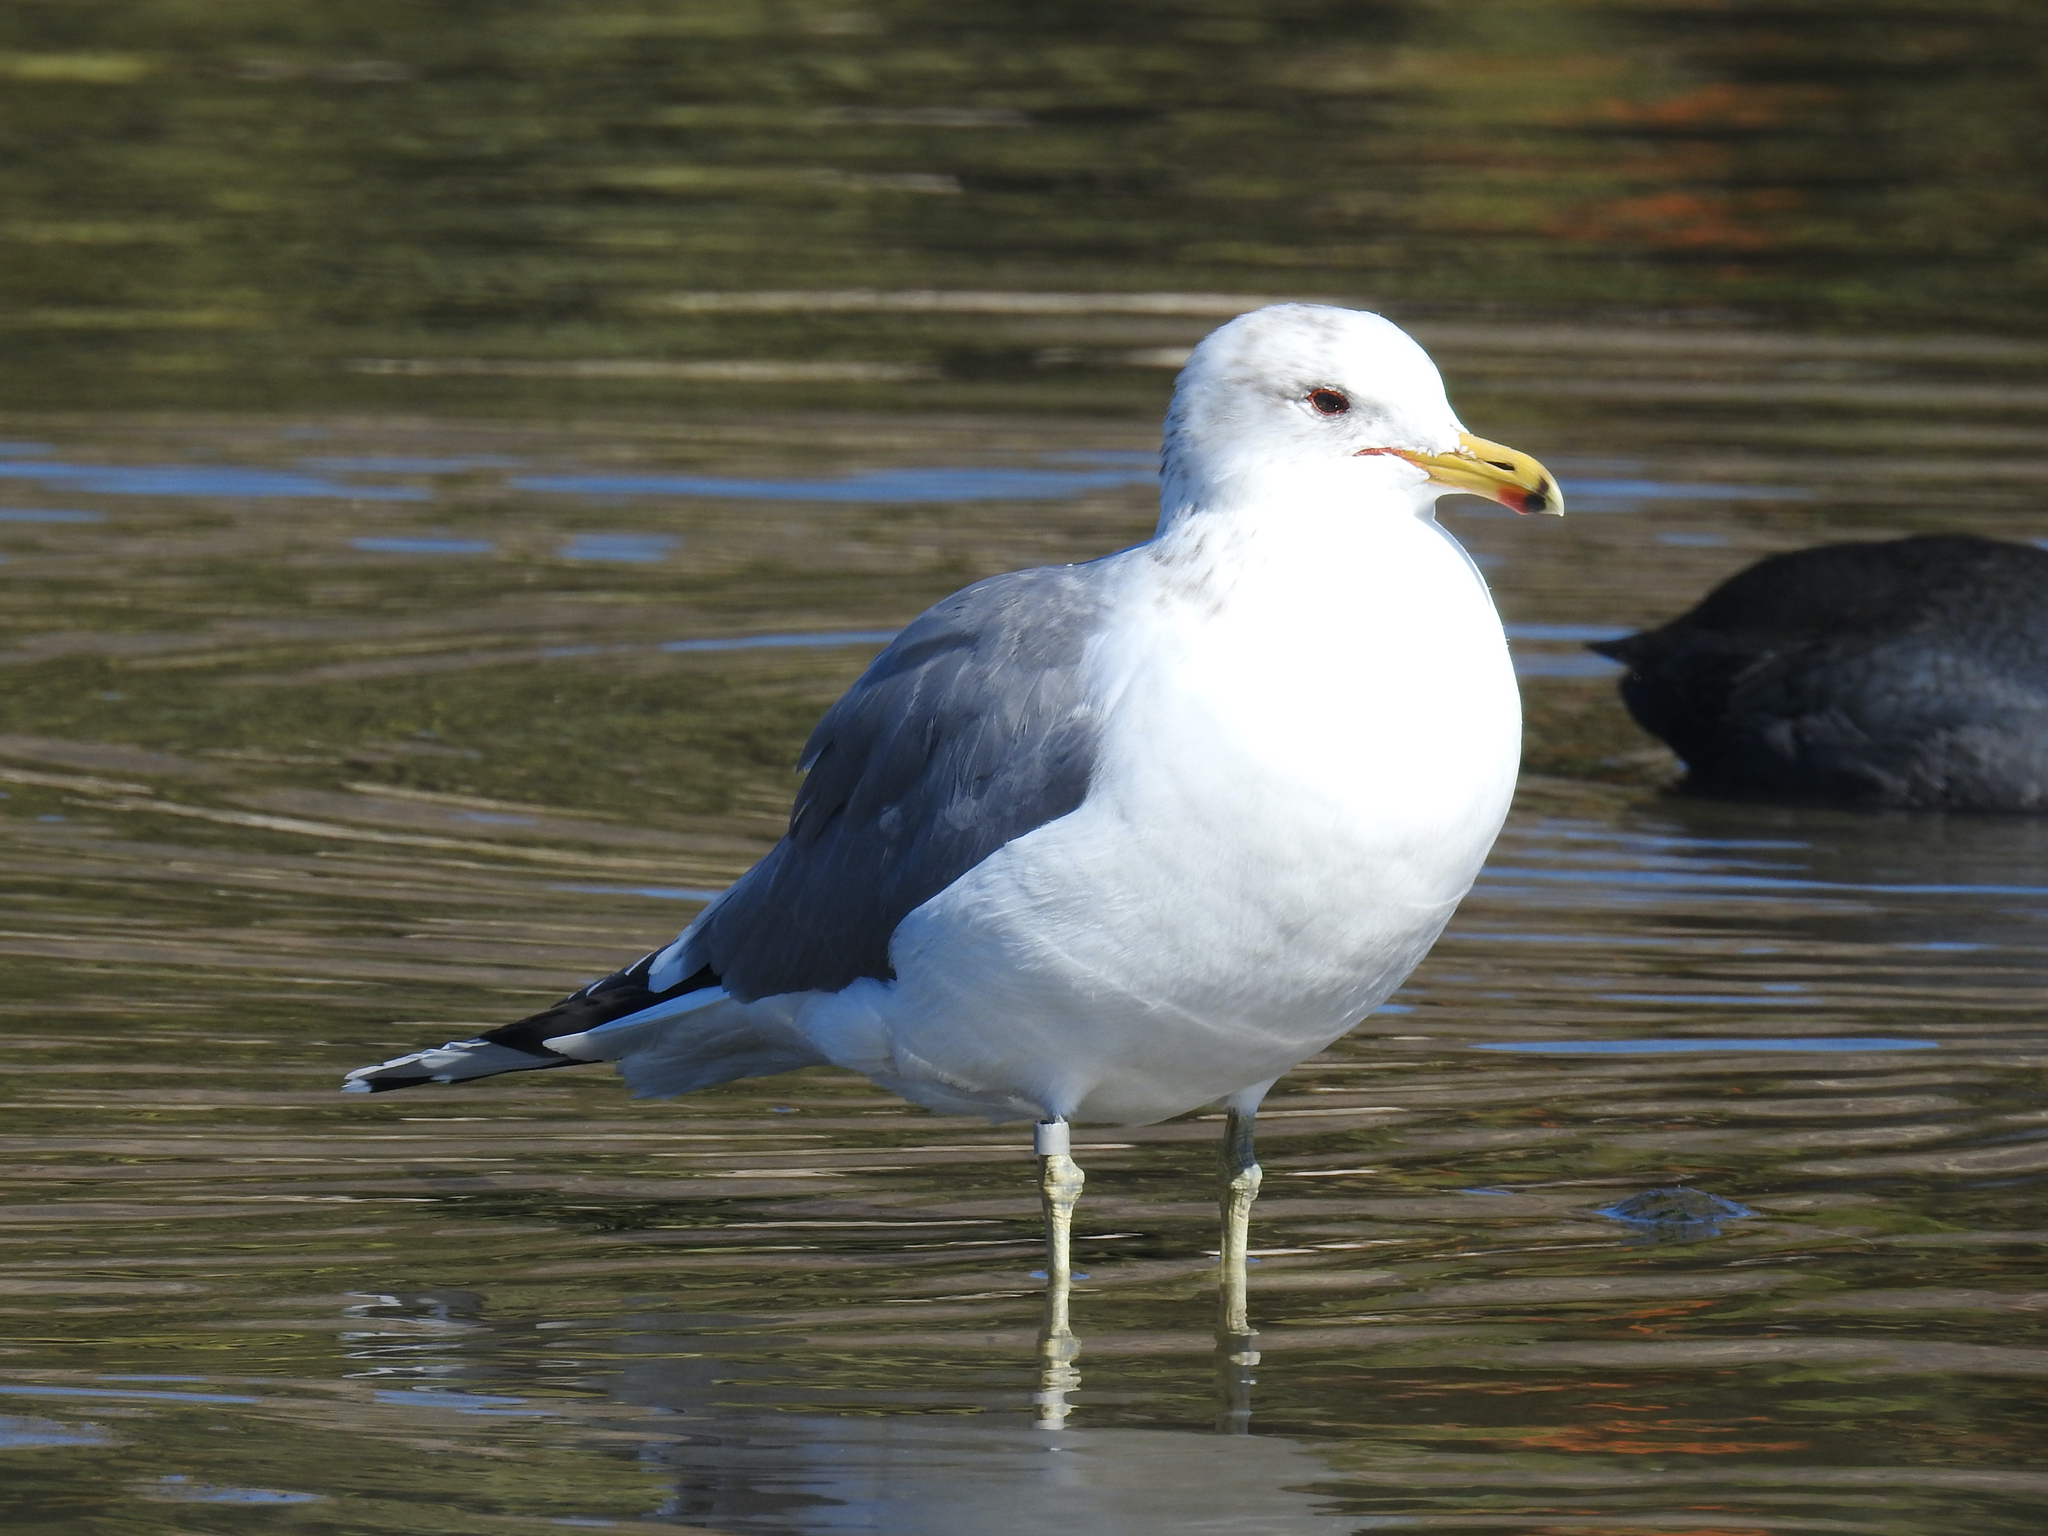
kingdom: Animalia
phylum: Chordata
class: Aves
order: Charadriiformes
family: Laridae
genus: Larus
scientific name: Larus californicus
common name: California gull
